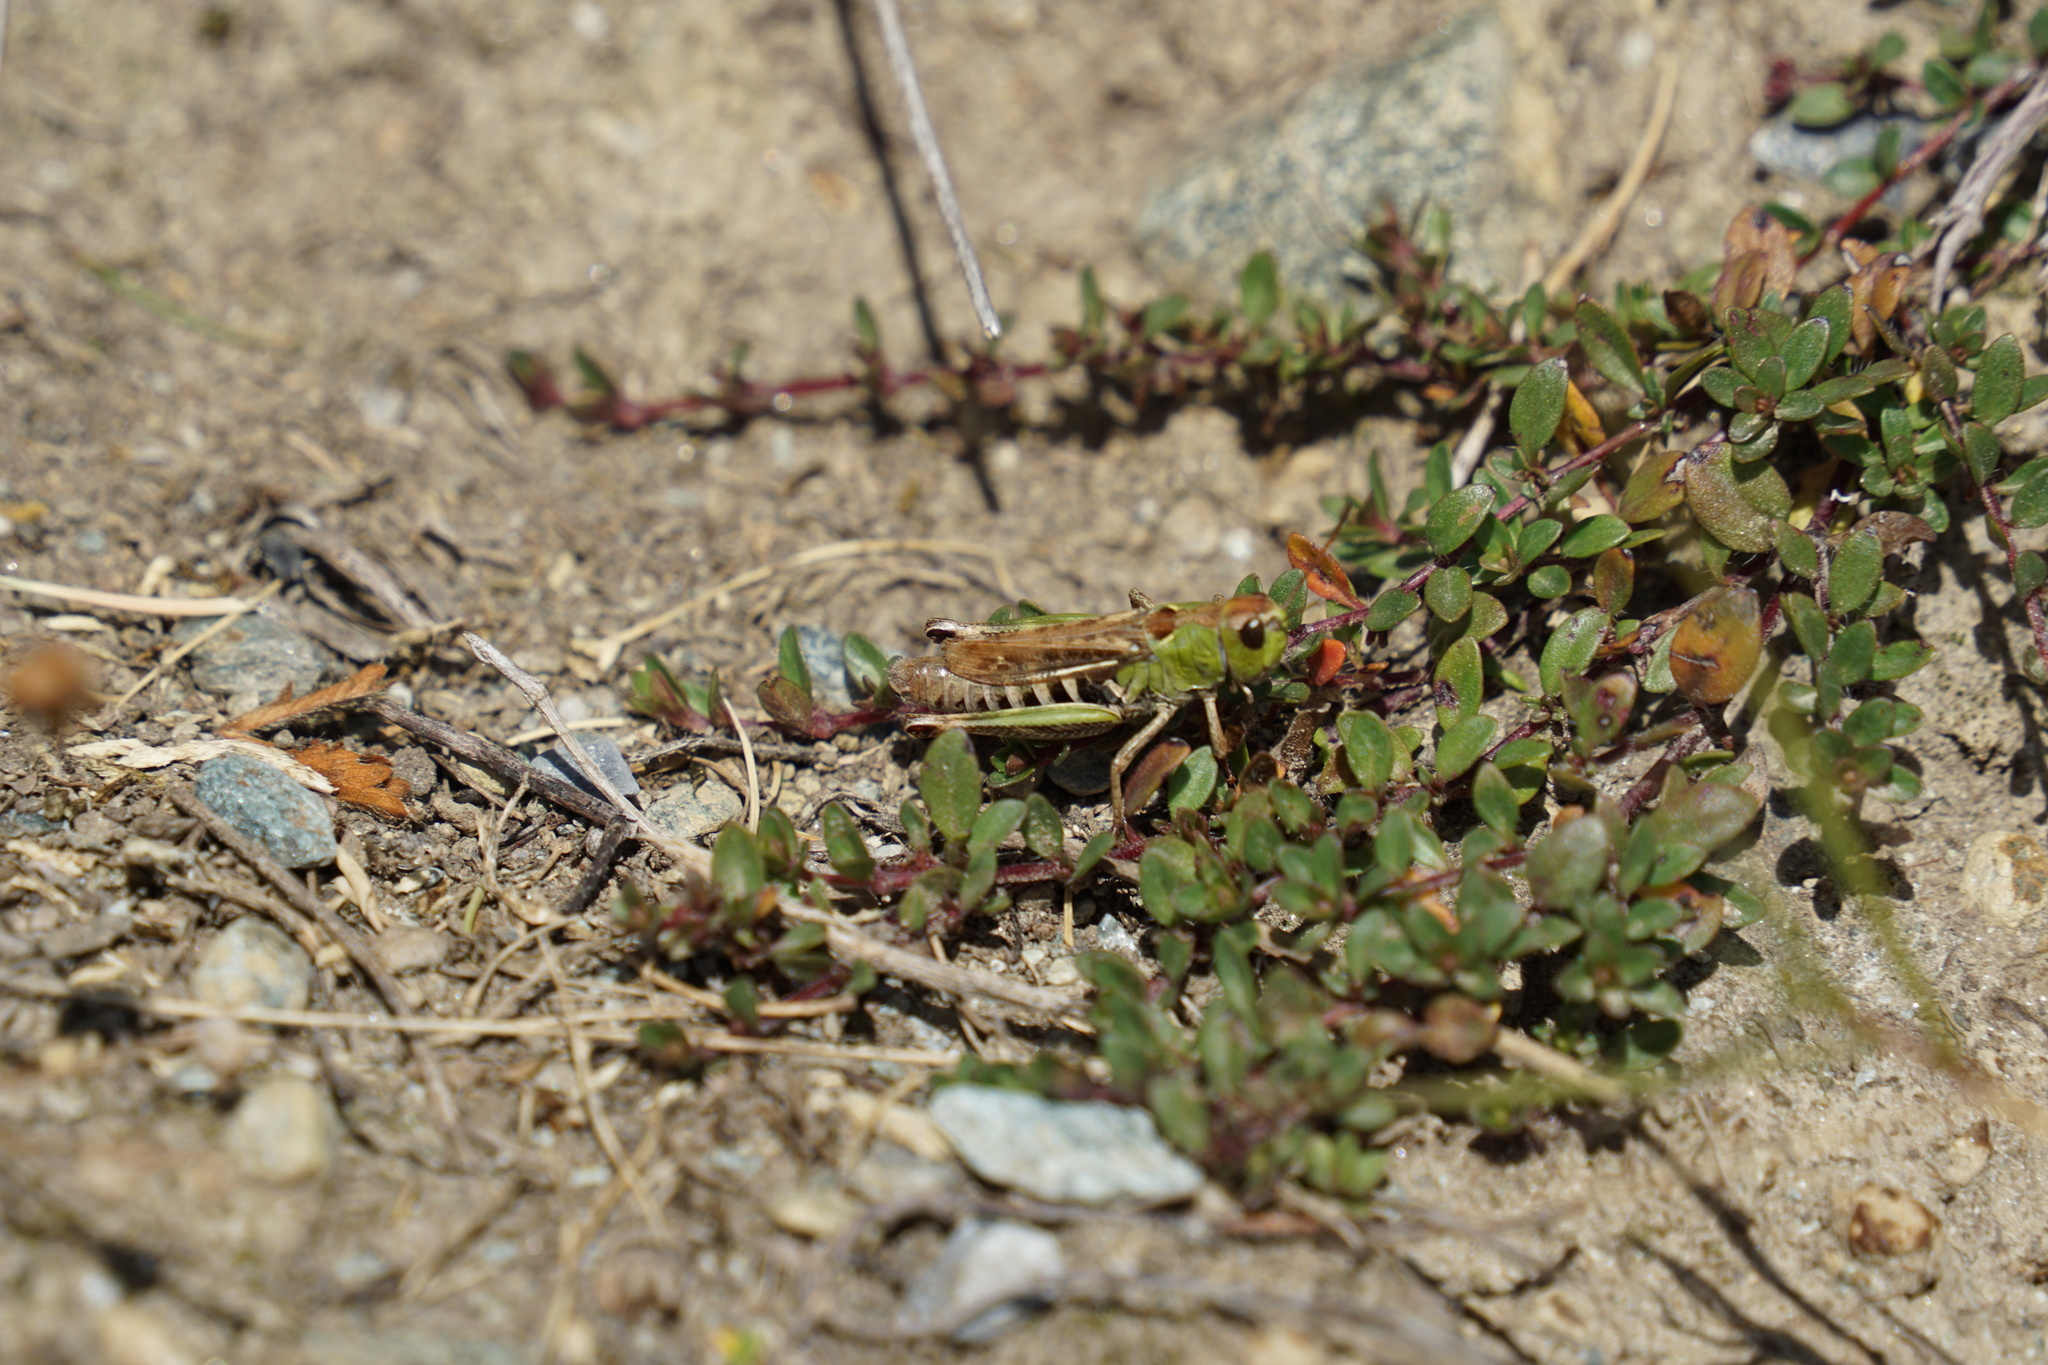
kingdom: Animalia
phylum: Arthropoda
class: Insecta
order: Orthoptera
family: Acrididae
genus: Gomphocerus
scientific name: Gomphocerus sibiricus
